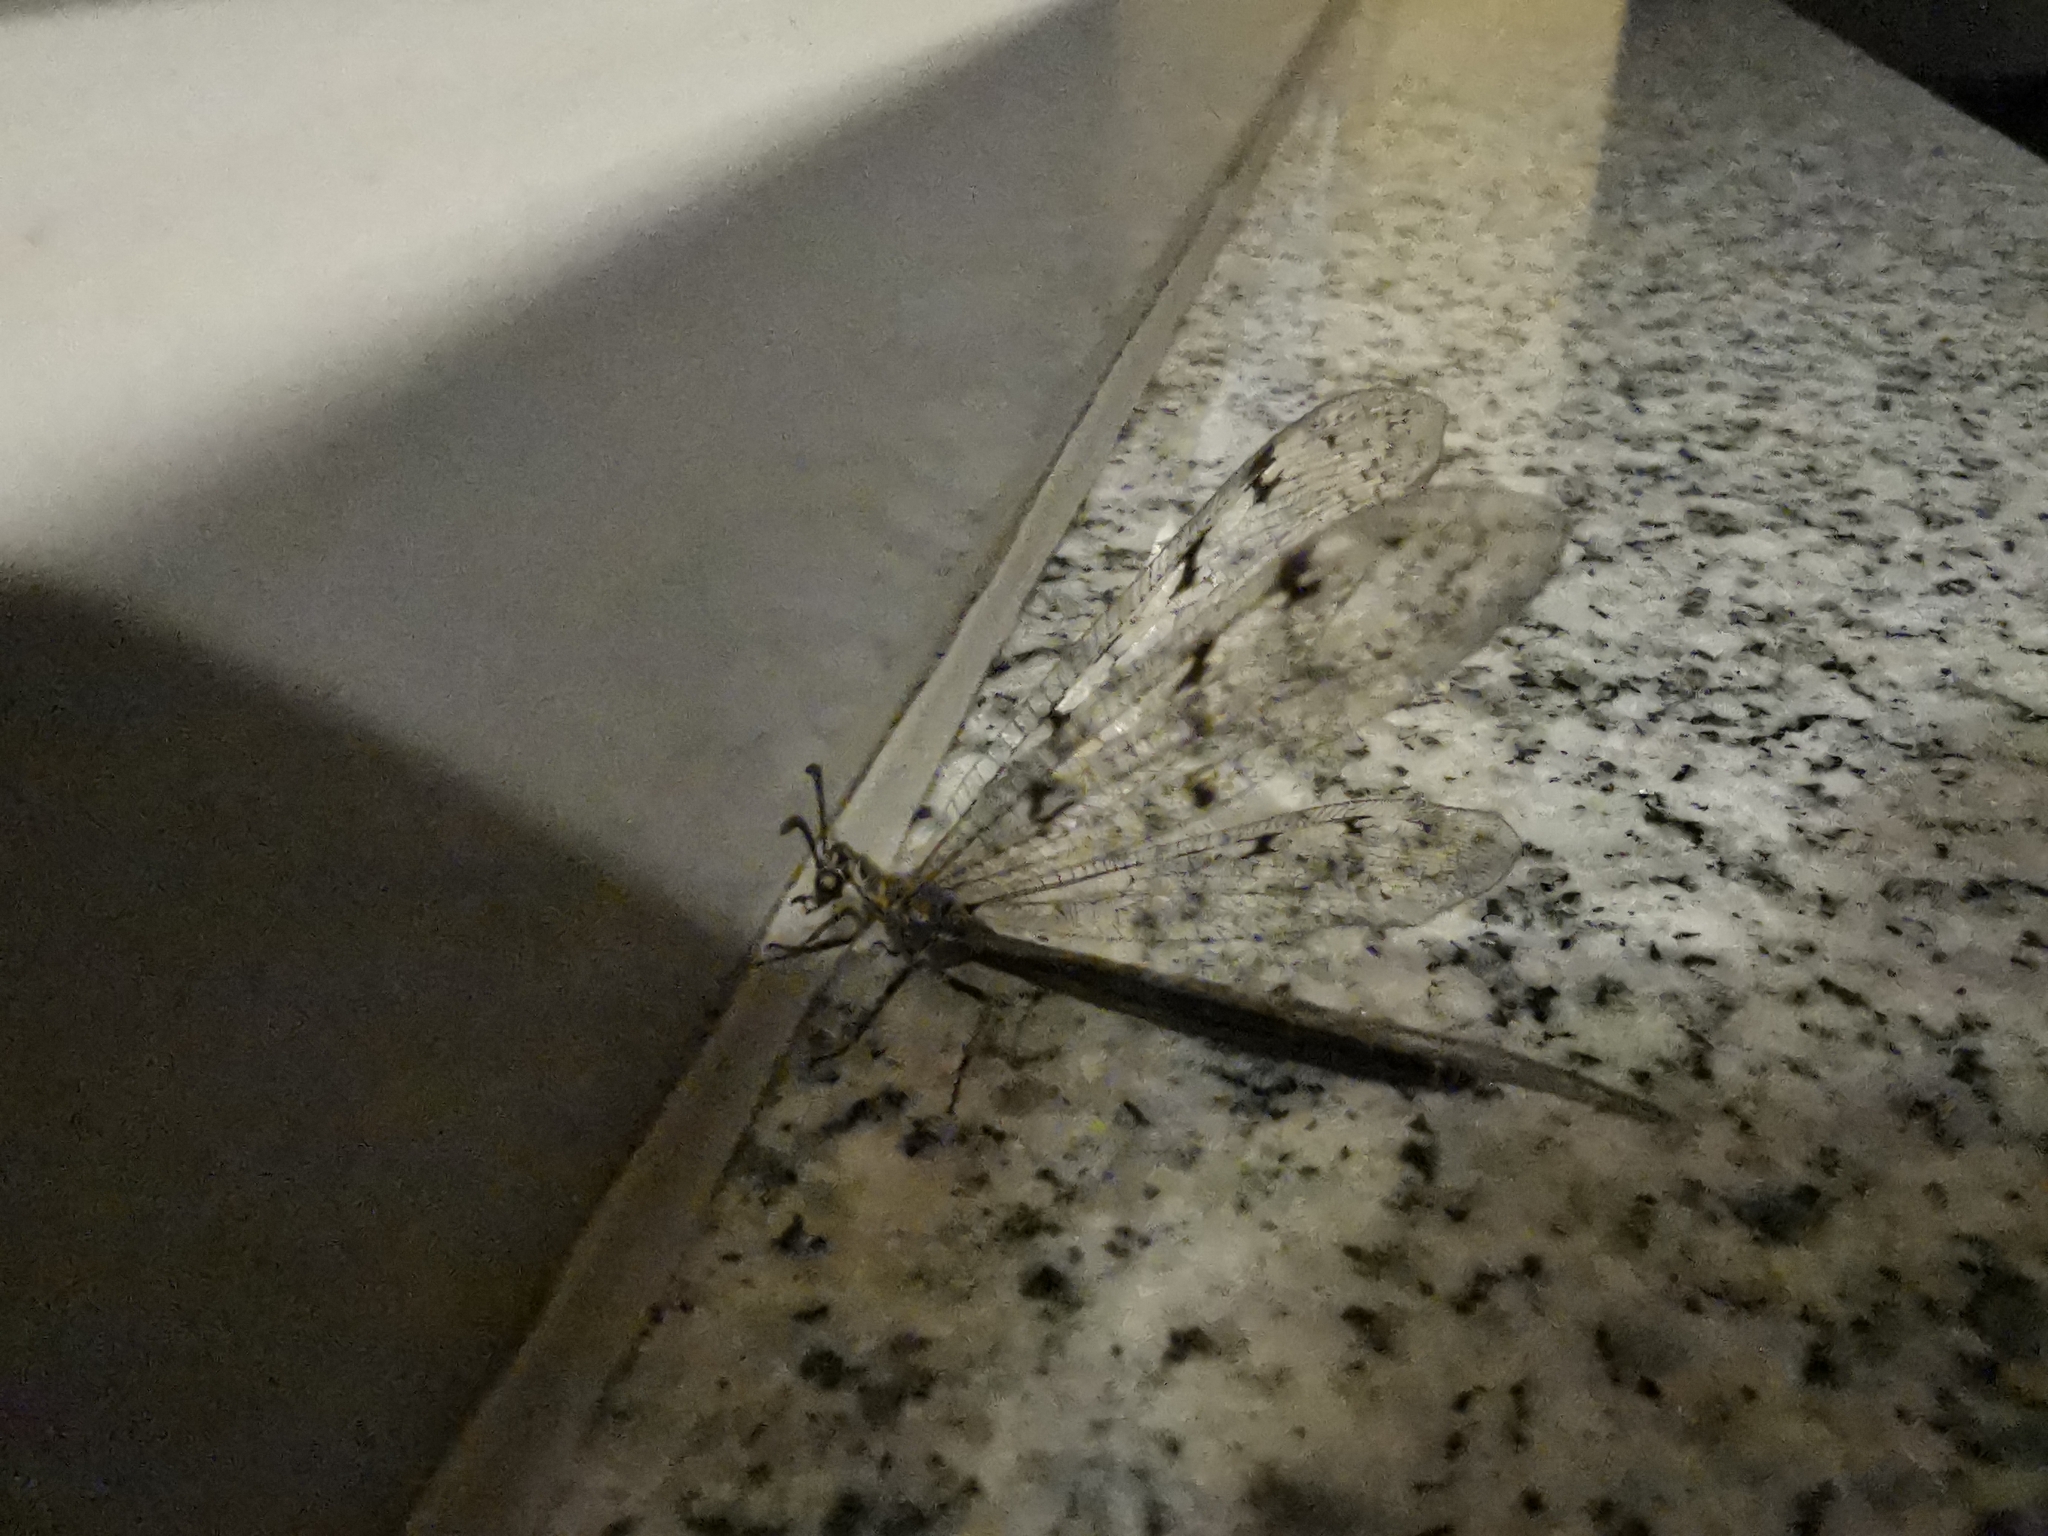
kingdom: Animalia
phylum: Arthropoda
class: Insecta
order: Neuroptera
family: Myrmeleontidae
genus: Euroleon
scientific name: Euroleon nostras
